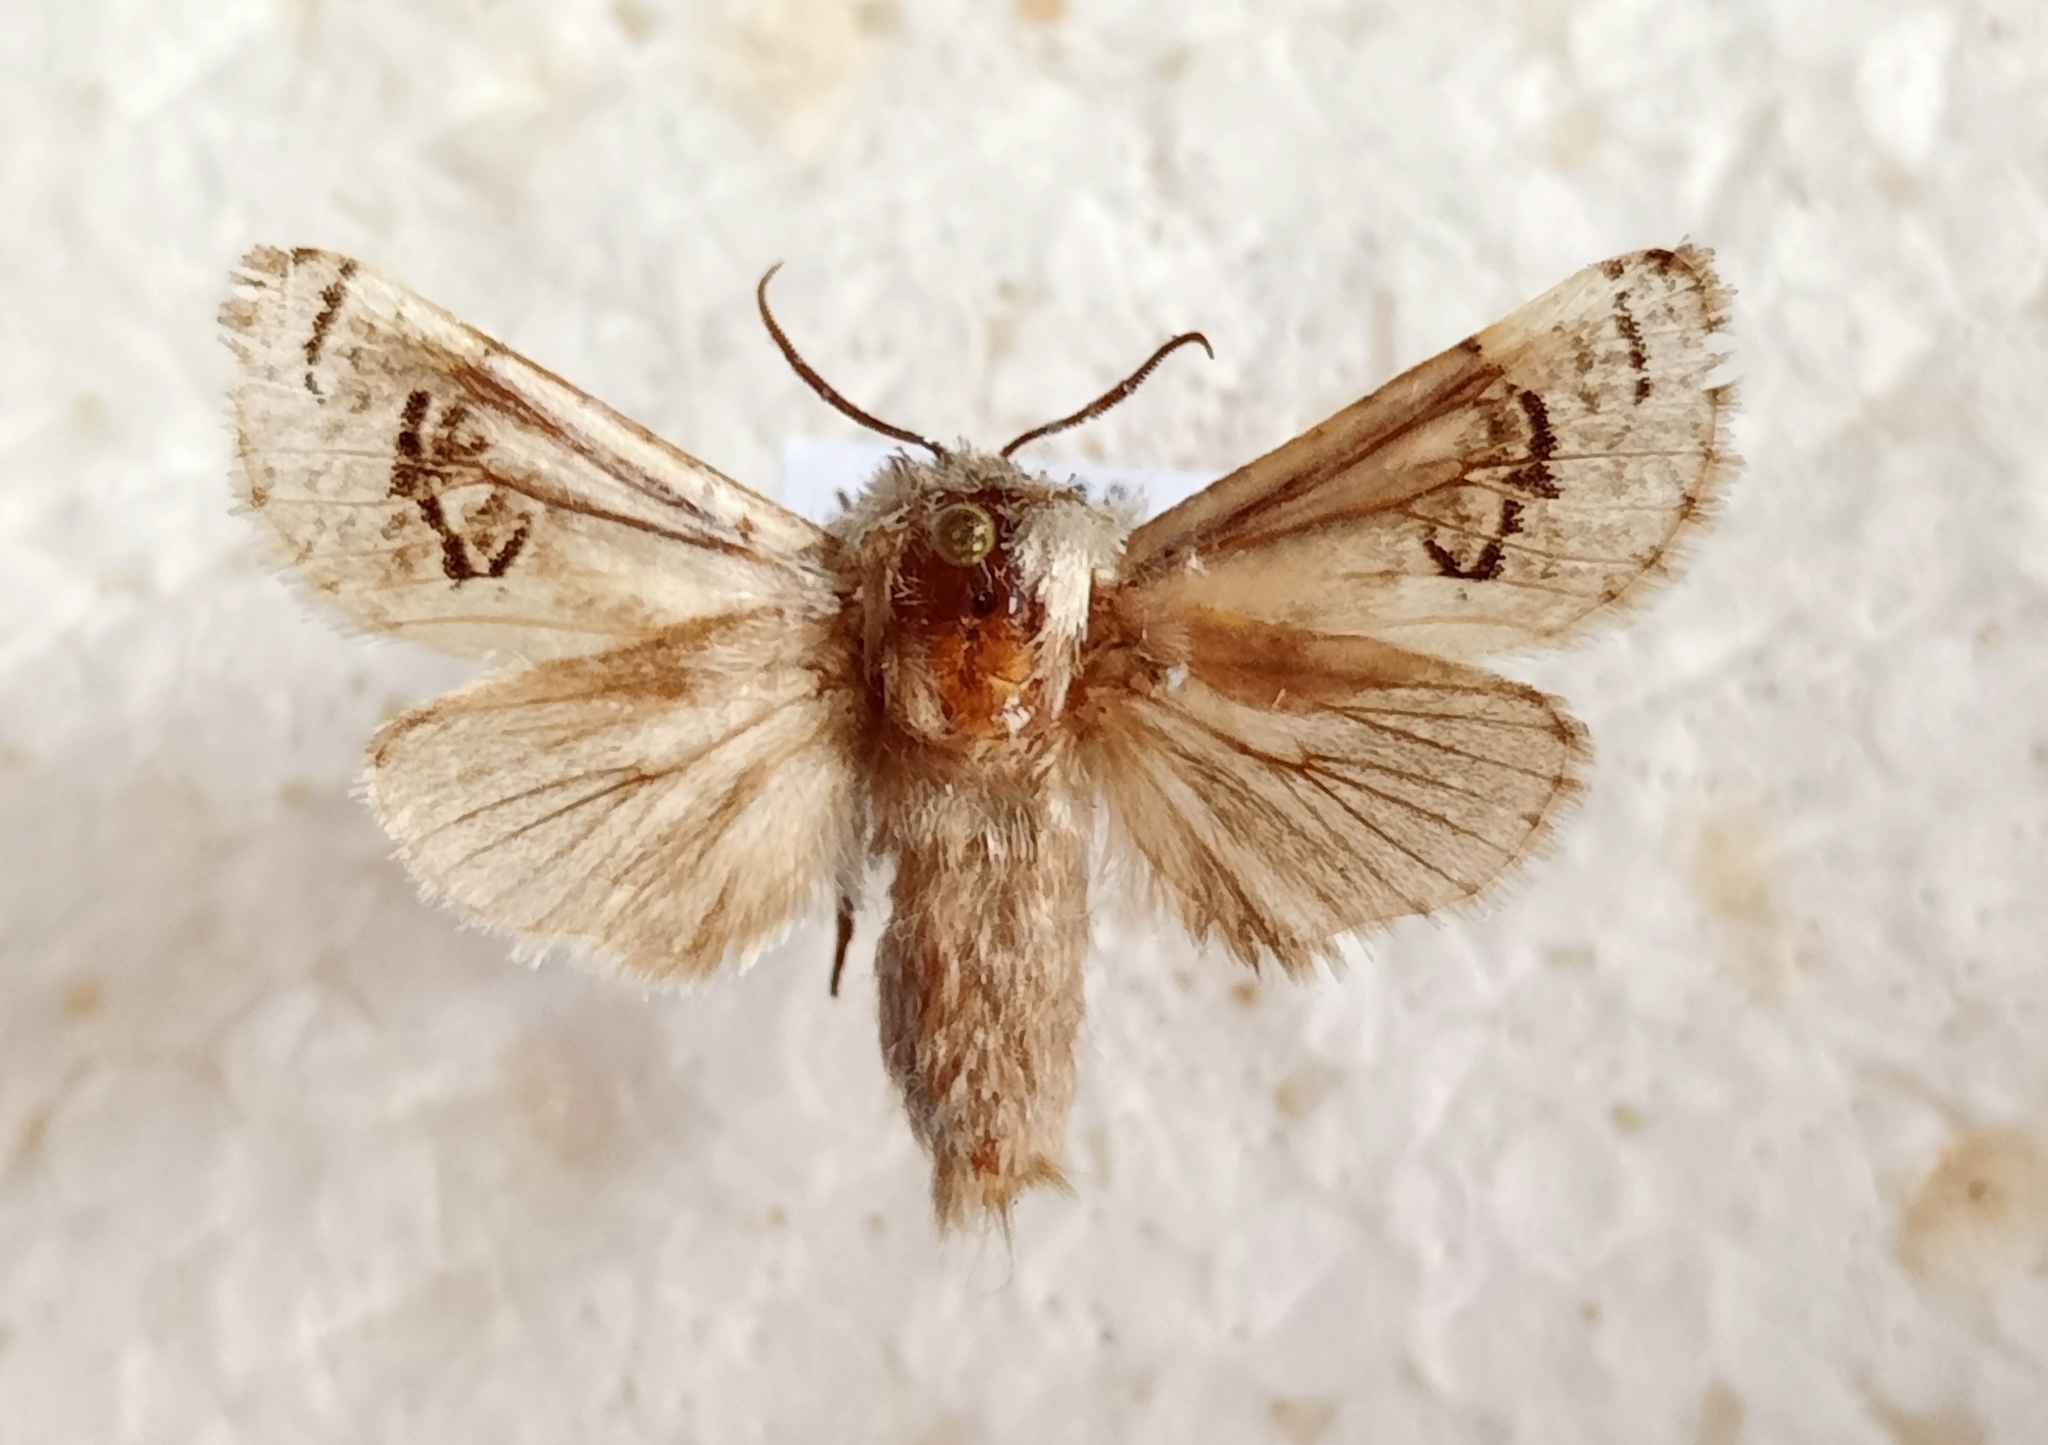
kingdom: Animalia
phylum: Arthropoda
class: Insecta
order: Lepidoptera
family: Cossidae
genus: Parahypopta
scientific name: Parahypopta caestrum
